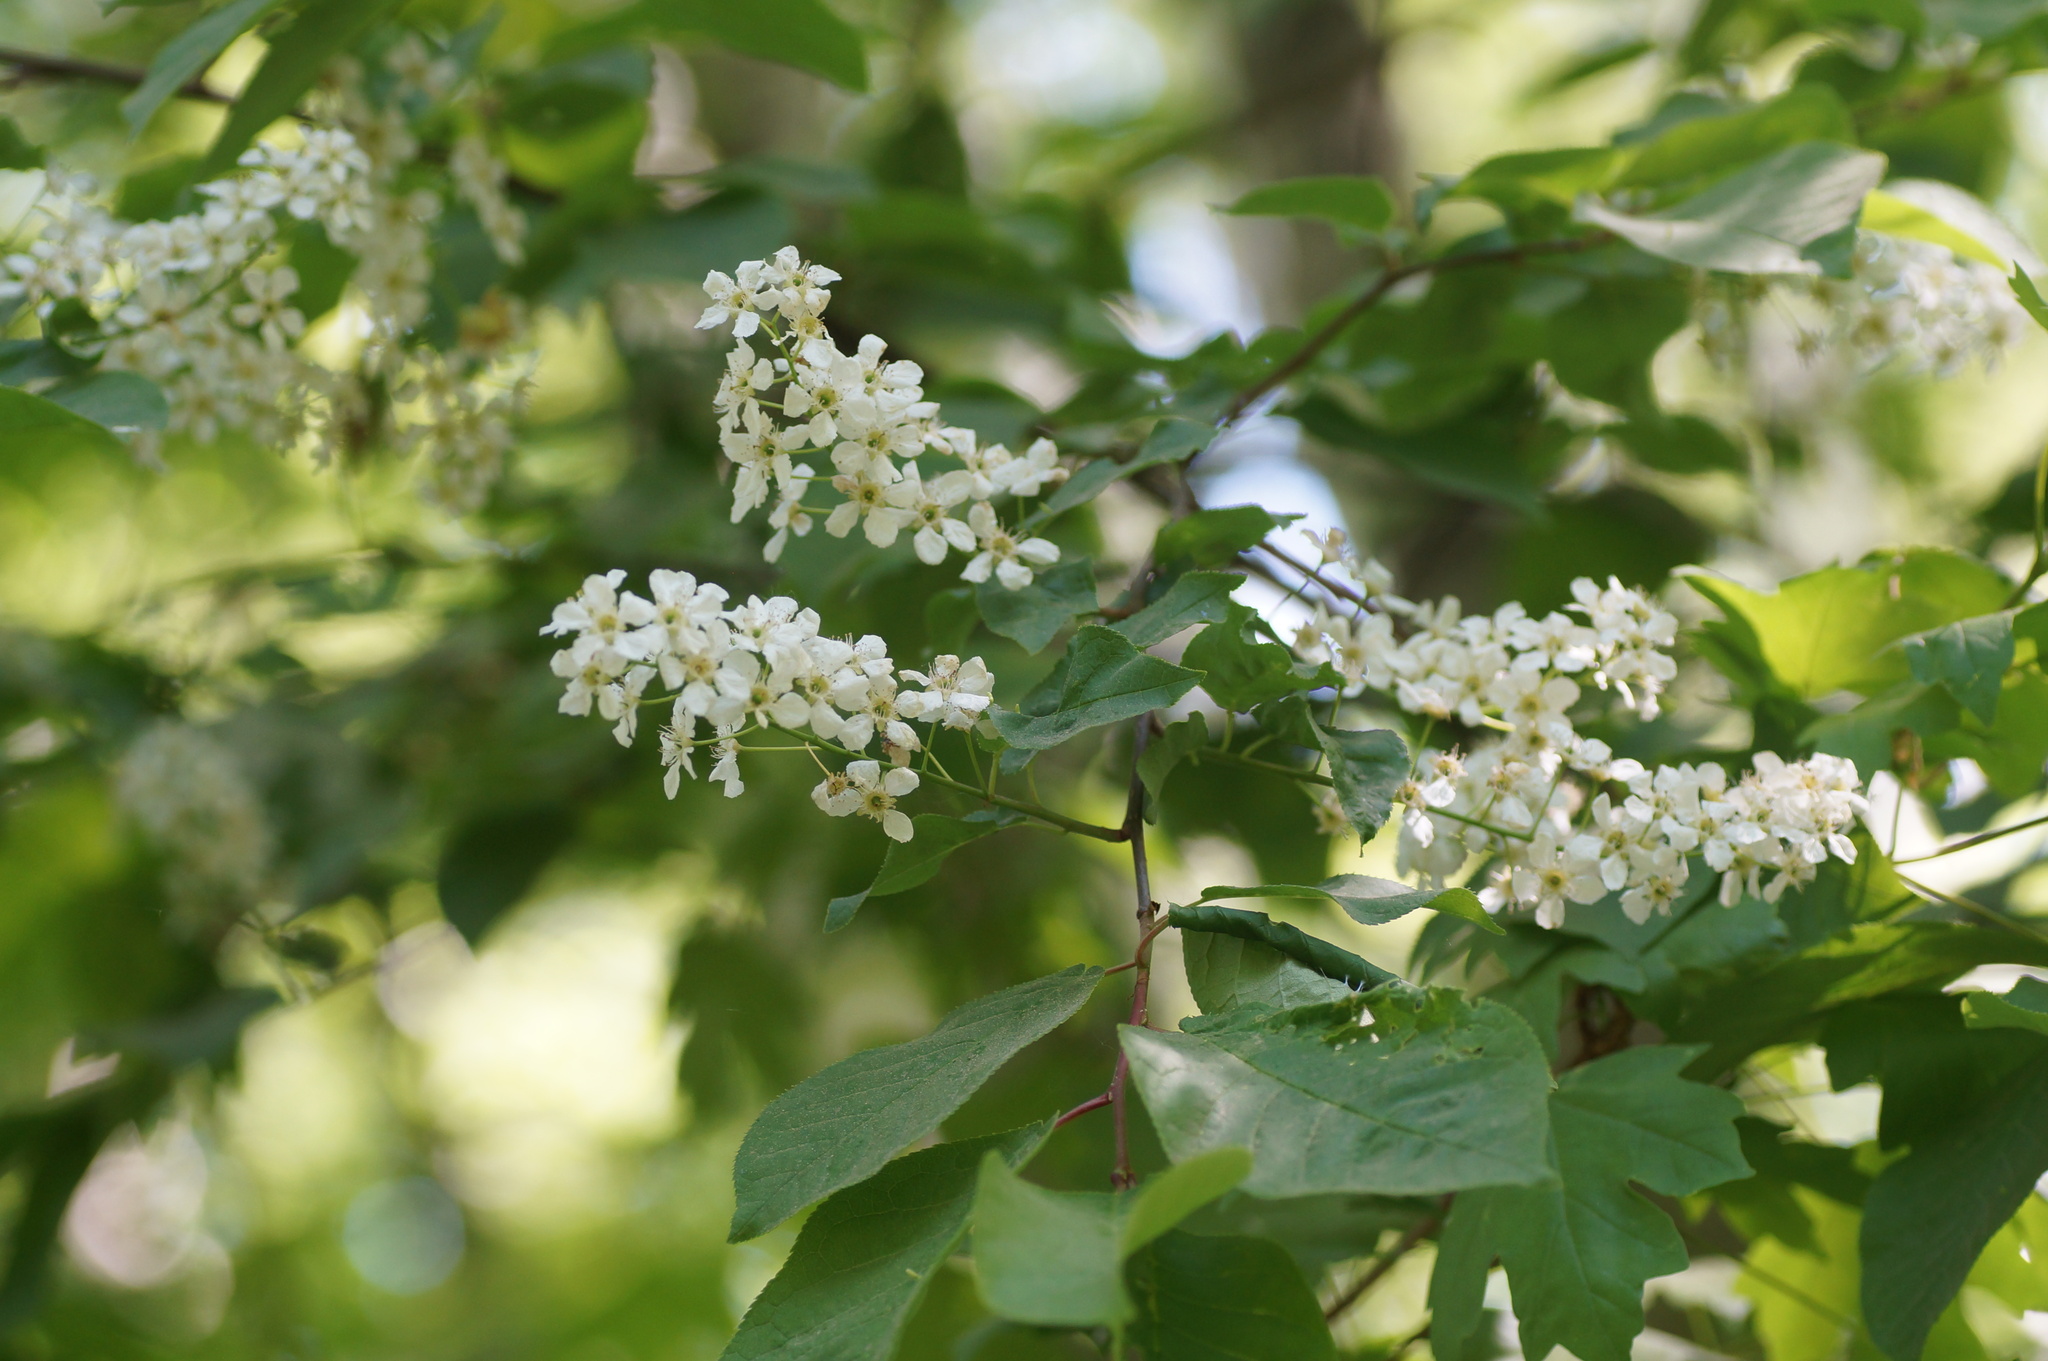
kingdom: Plantae
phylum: Tracheophyta
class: Magnoliopsida
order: Rosales
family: Rosaceae
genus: Prunus
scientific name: Prunus padus
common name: Bird cherry
